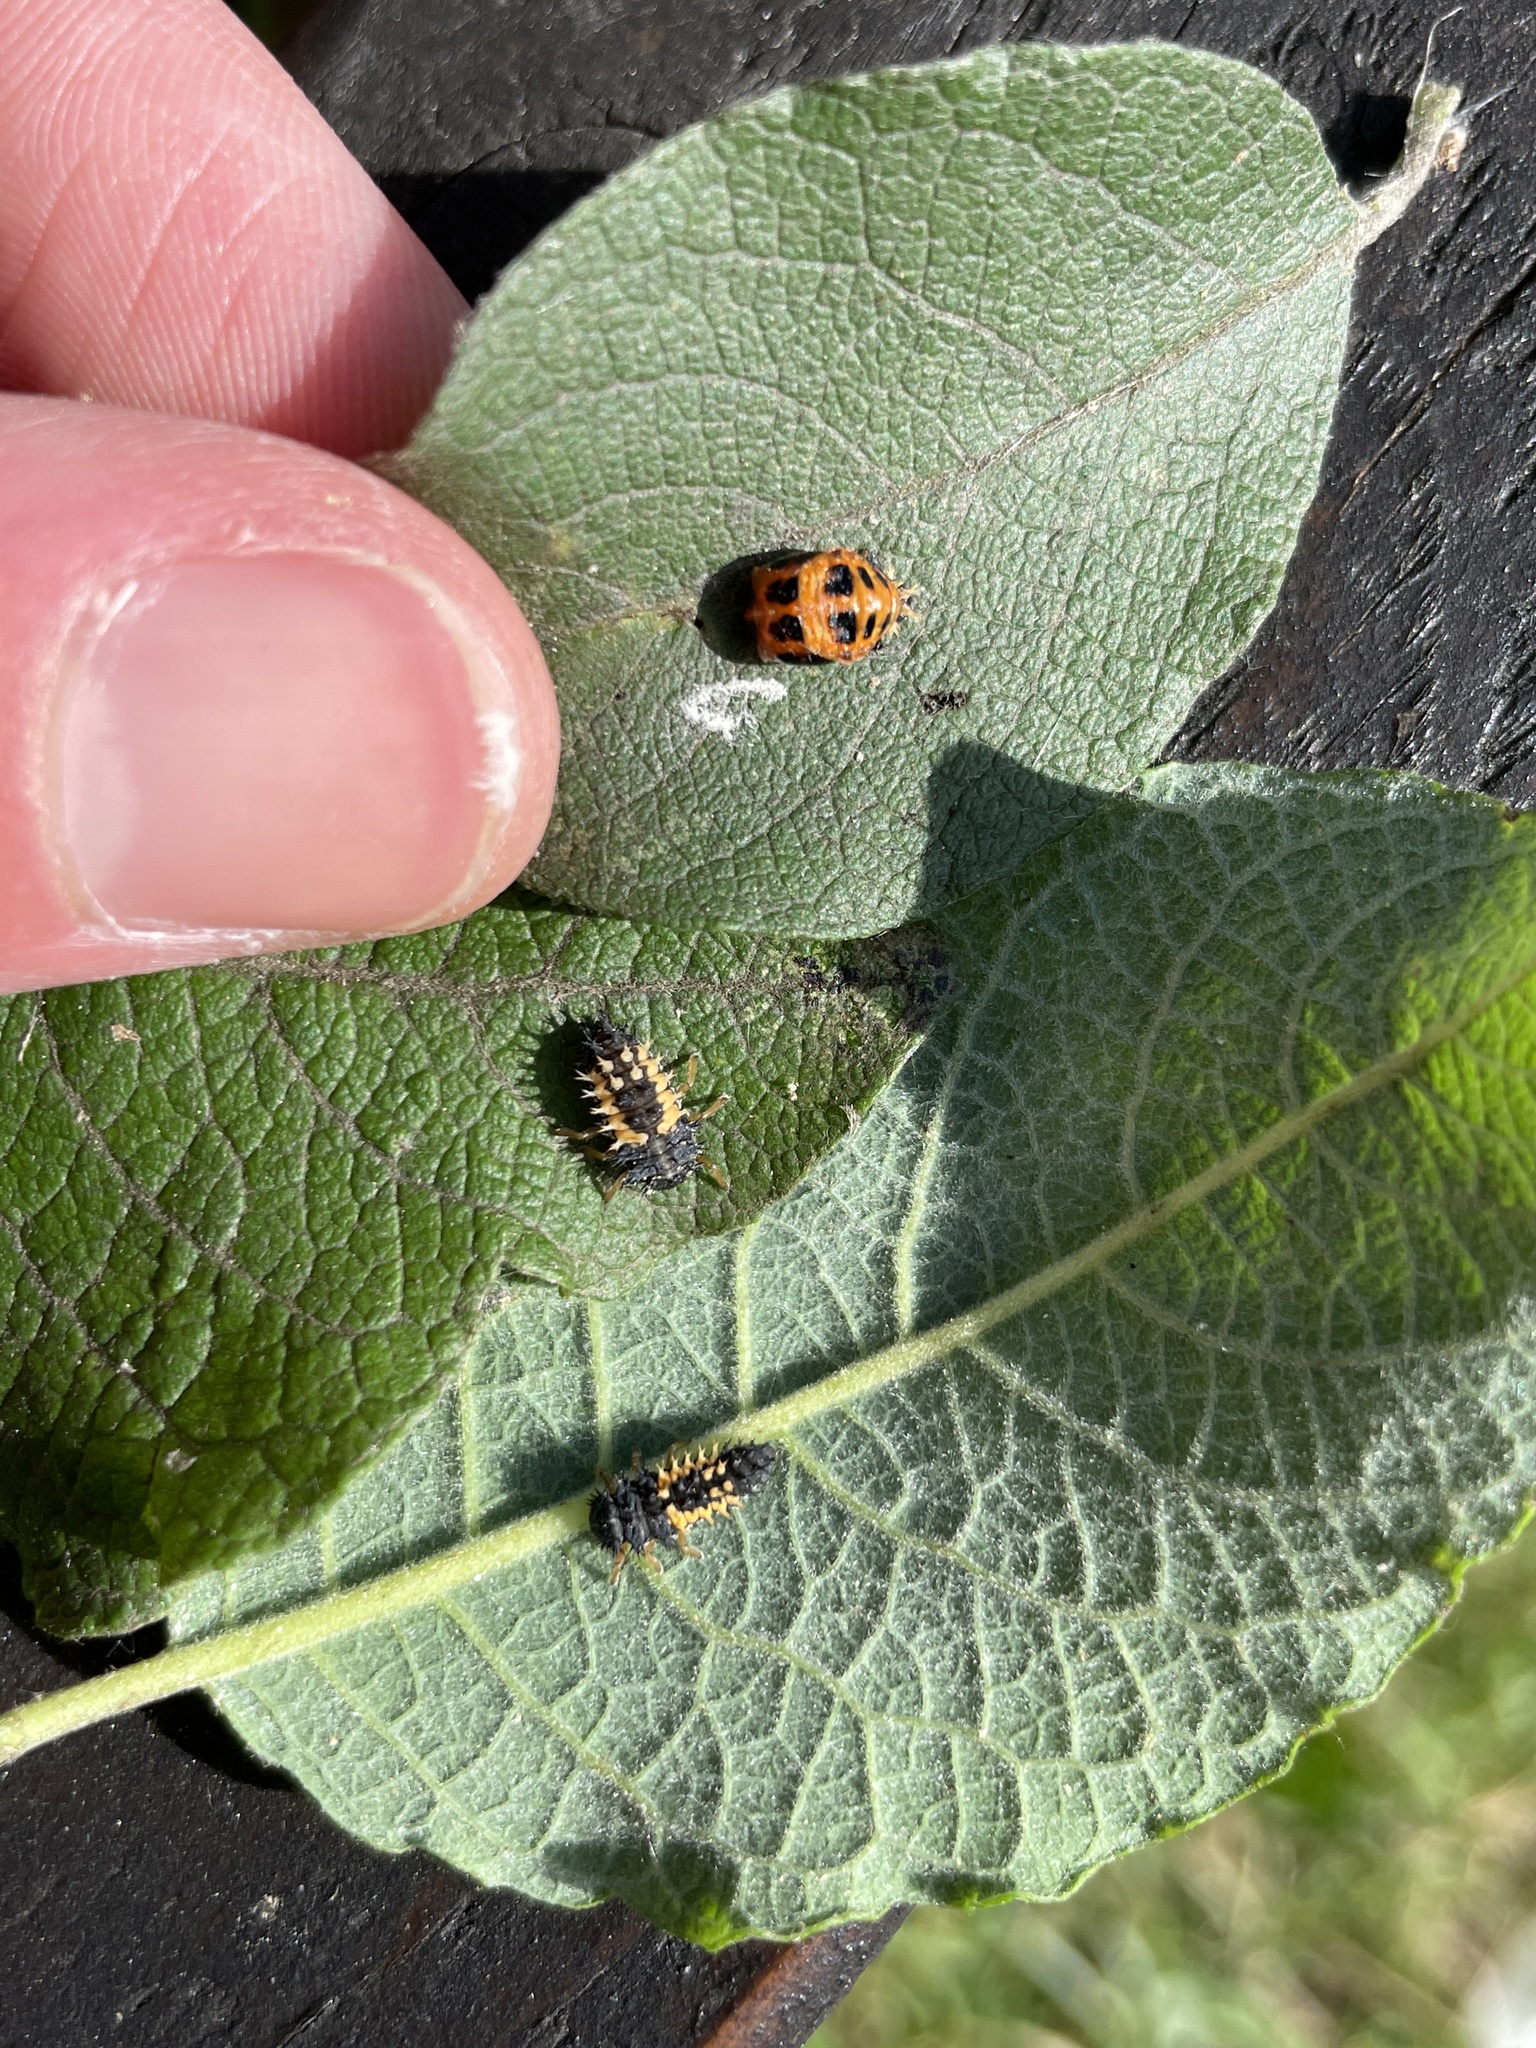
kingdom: Animalia
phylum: Arthropoda
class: Insecta
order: Coleoptera
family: Coccinellidae
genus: Harmonia
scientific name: Harmonia axyridis
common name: Harlequin ladybird
